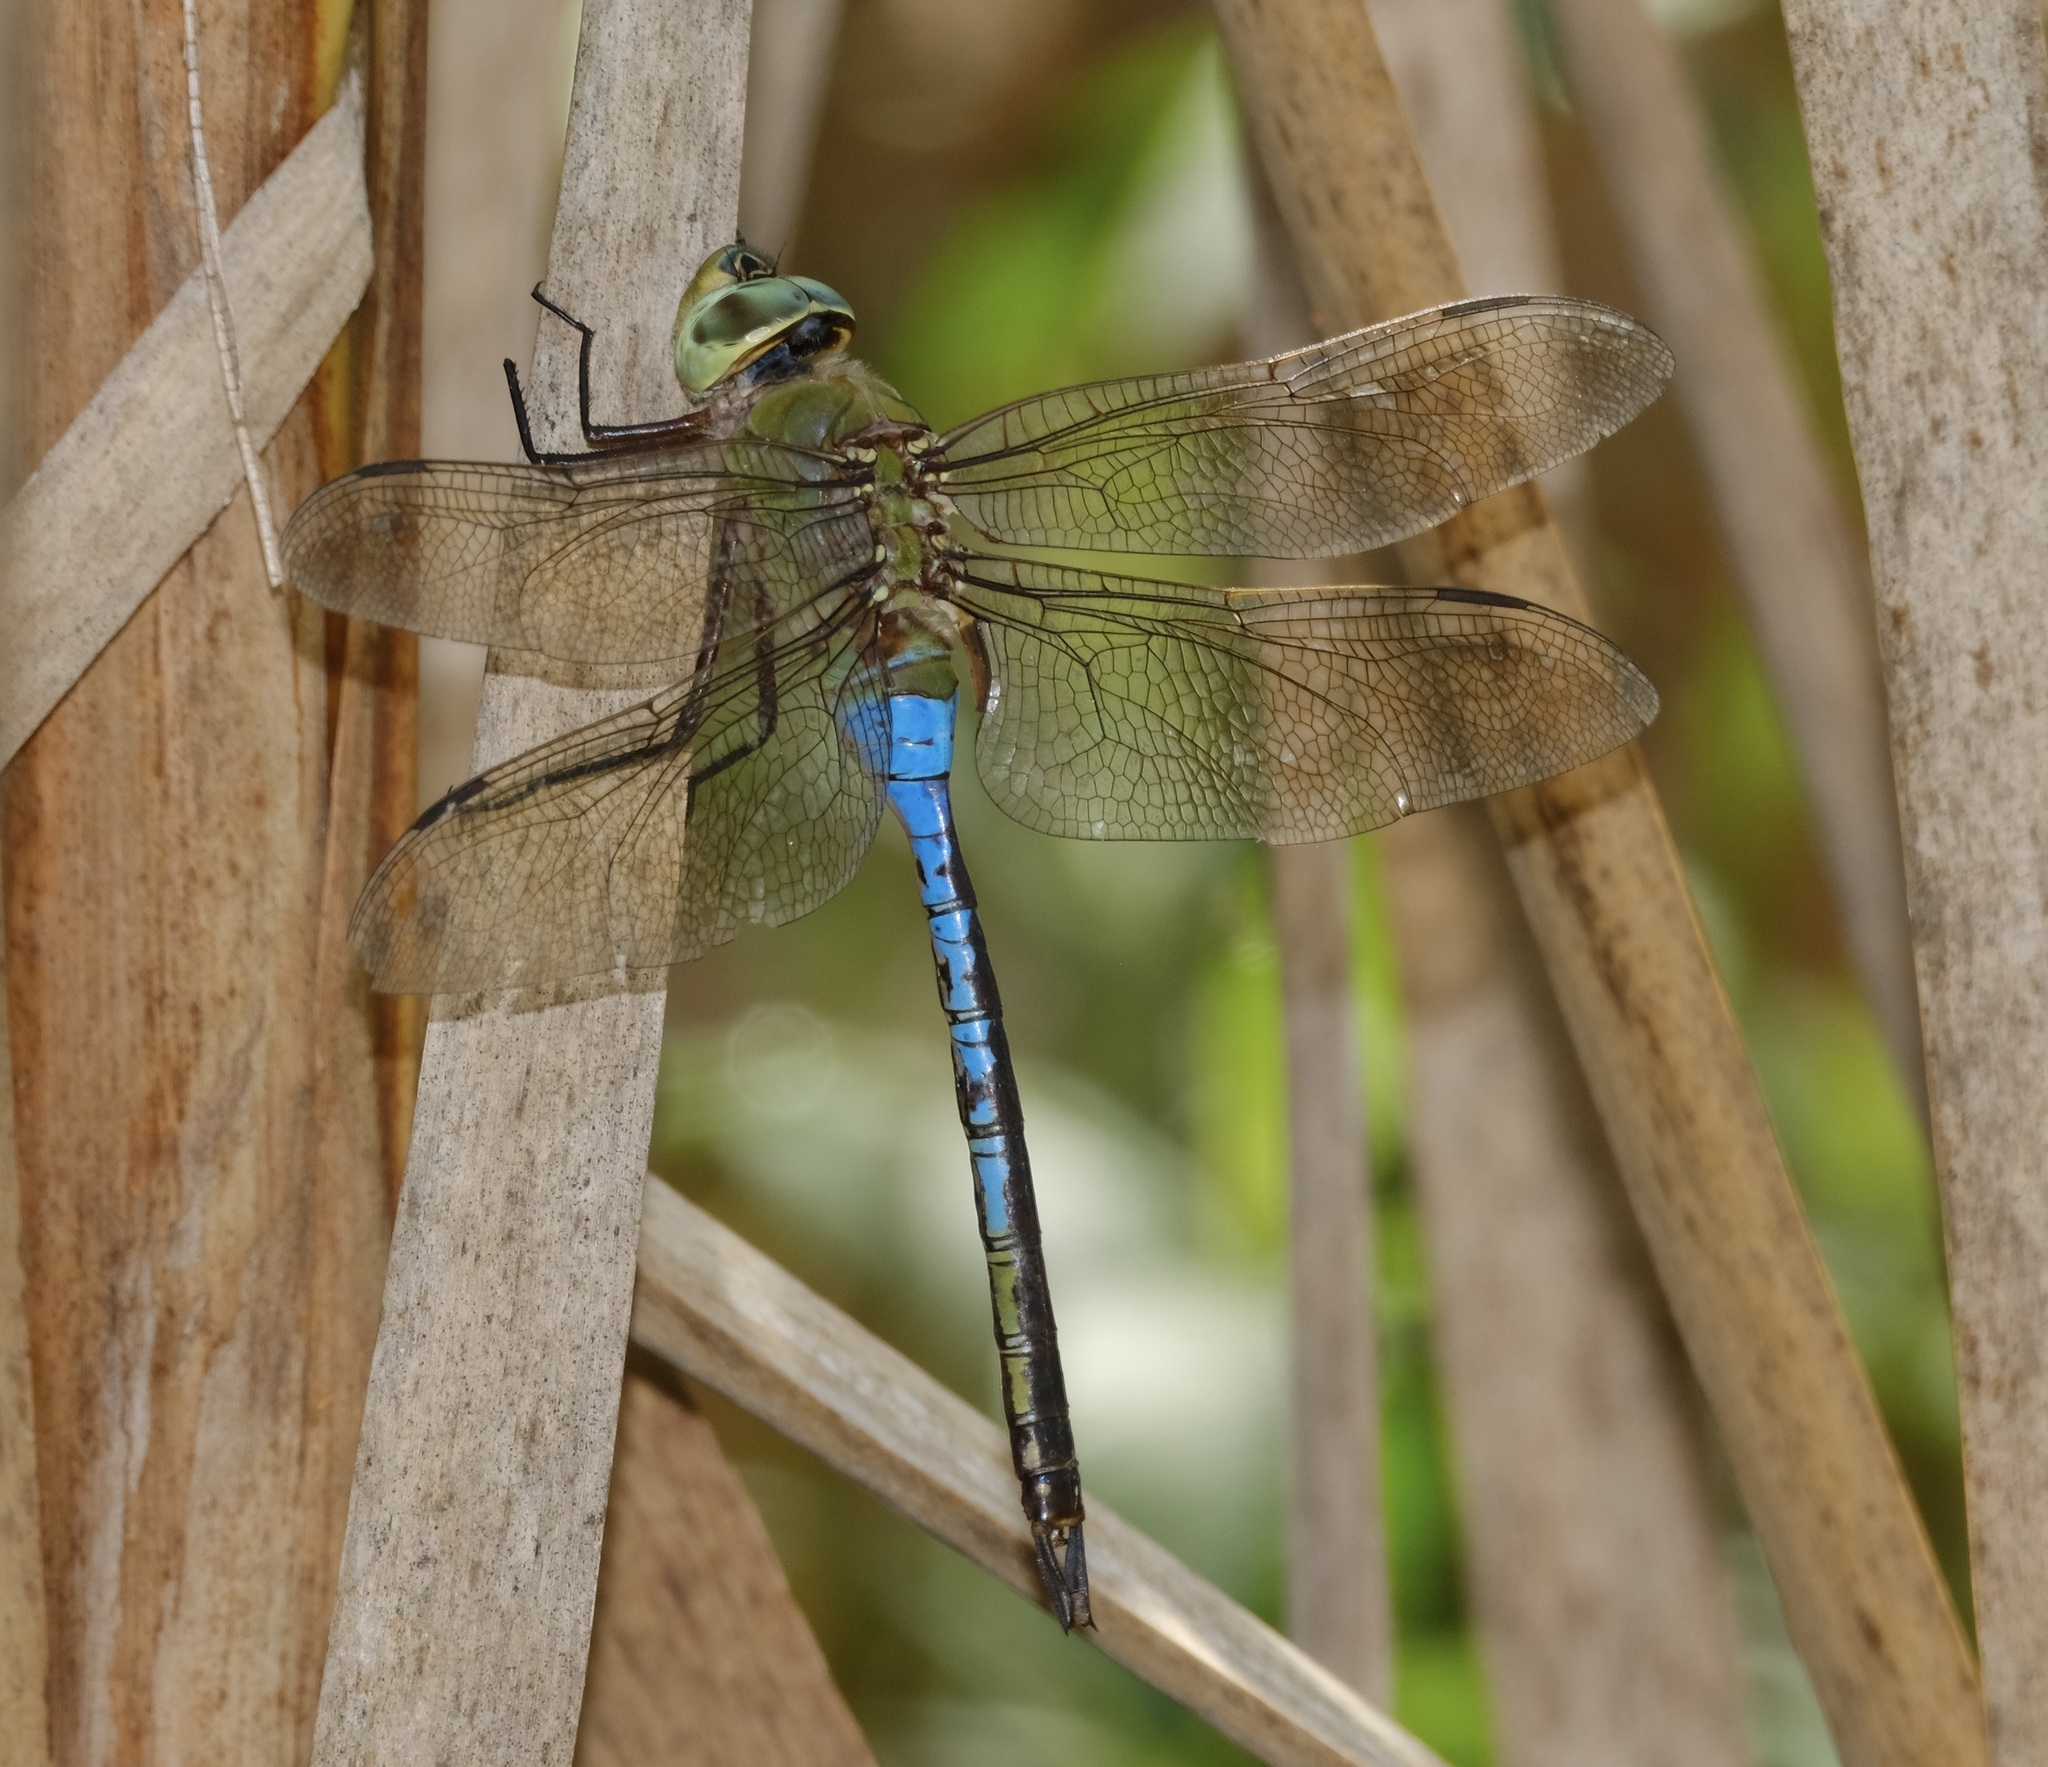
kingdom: Animalia
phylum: Arthropoda
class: Insecta
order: Odonata
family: Aeshnidae
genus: Anax
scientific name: Anax junius
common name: Common green darner
